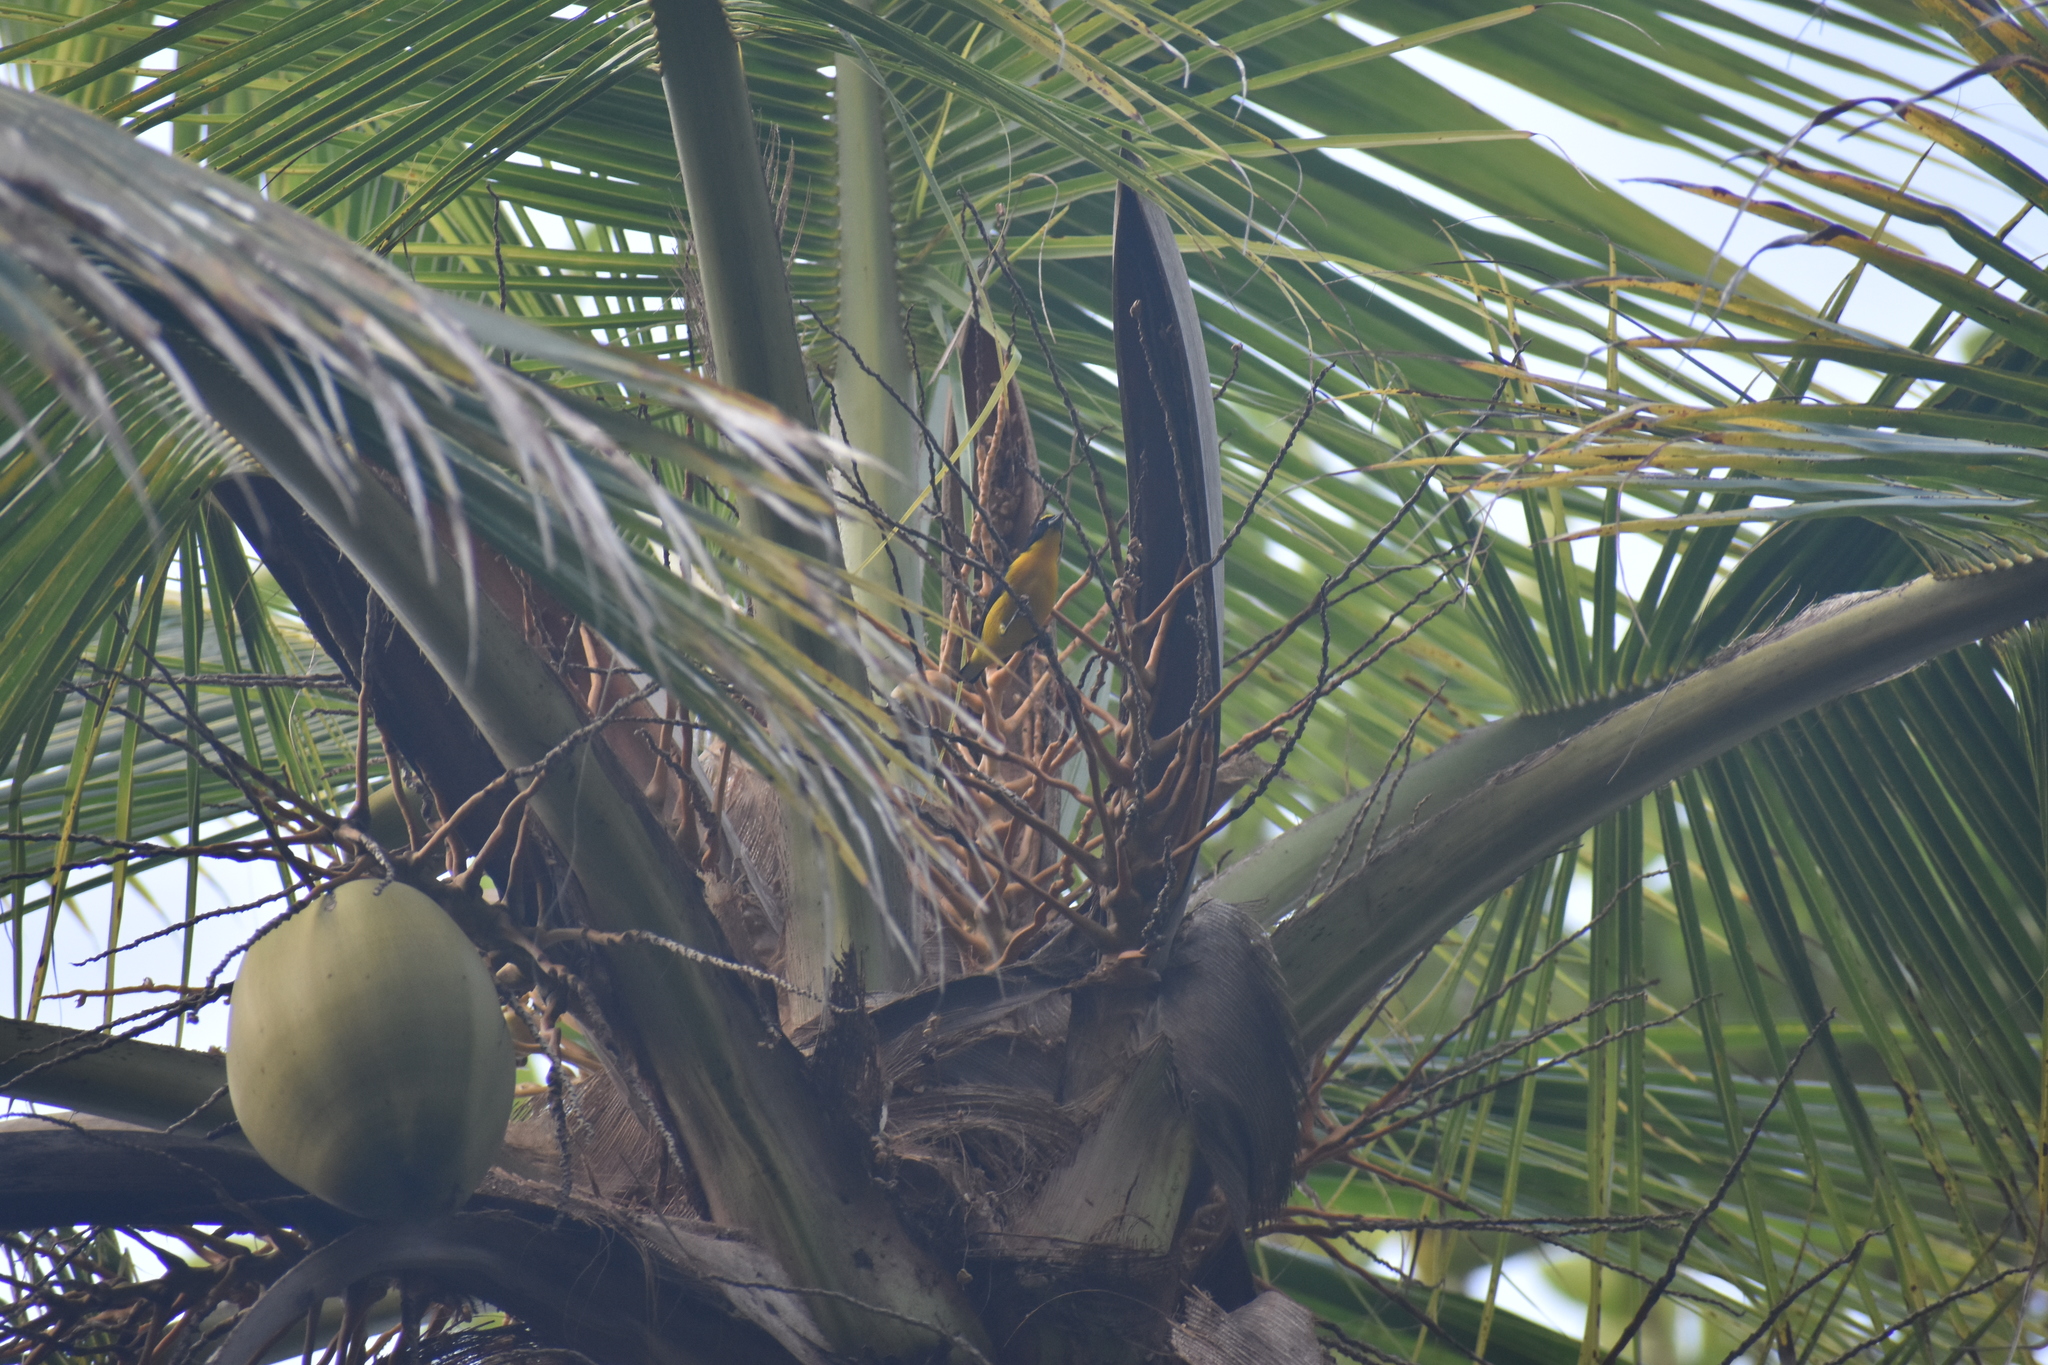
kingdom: Animalia
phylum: Chordata
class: Aves
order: Passeriformes
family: Fringillidae
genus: Euphonia
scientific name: Euphonia laniirostris
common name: Thick-billed euphonia
